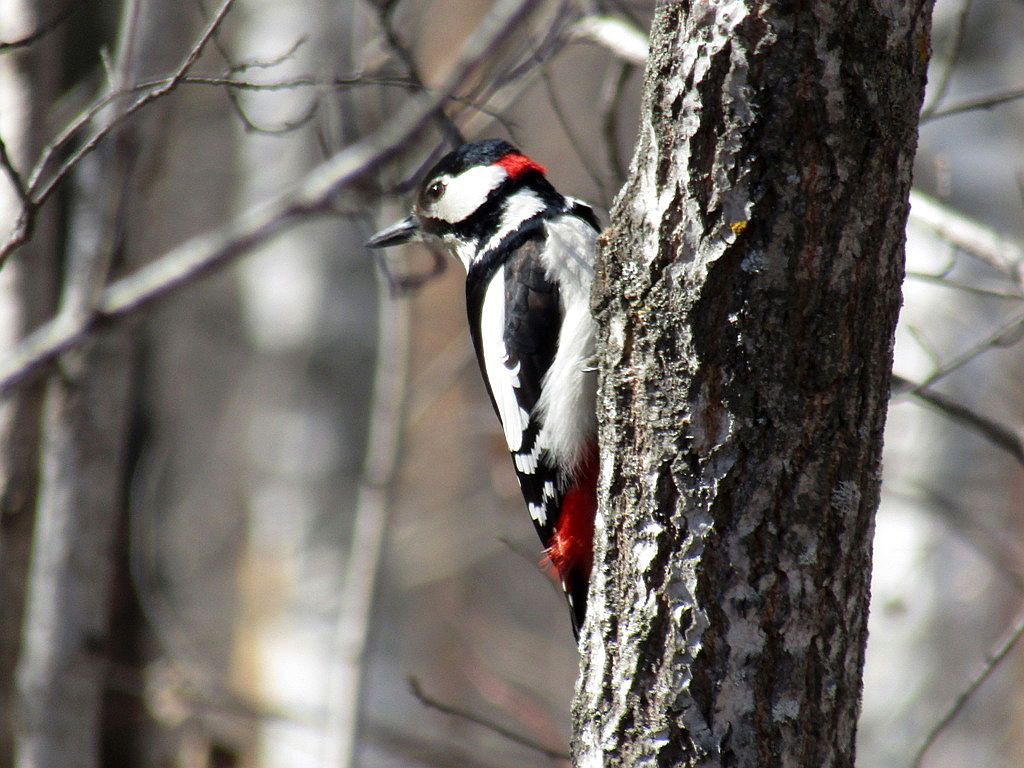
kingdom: Animalia
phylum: Chordata
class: Aves
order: Piciformes
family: Picidae
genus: Dendrocopos
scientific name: Dendrocopos major
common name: Great spotted woodpecker
